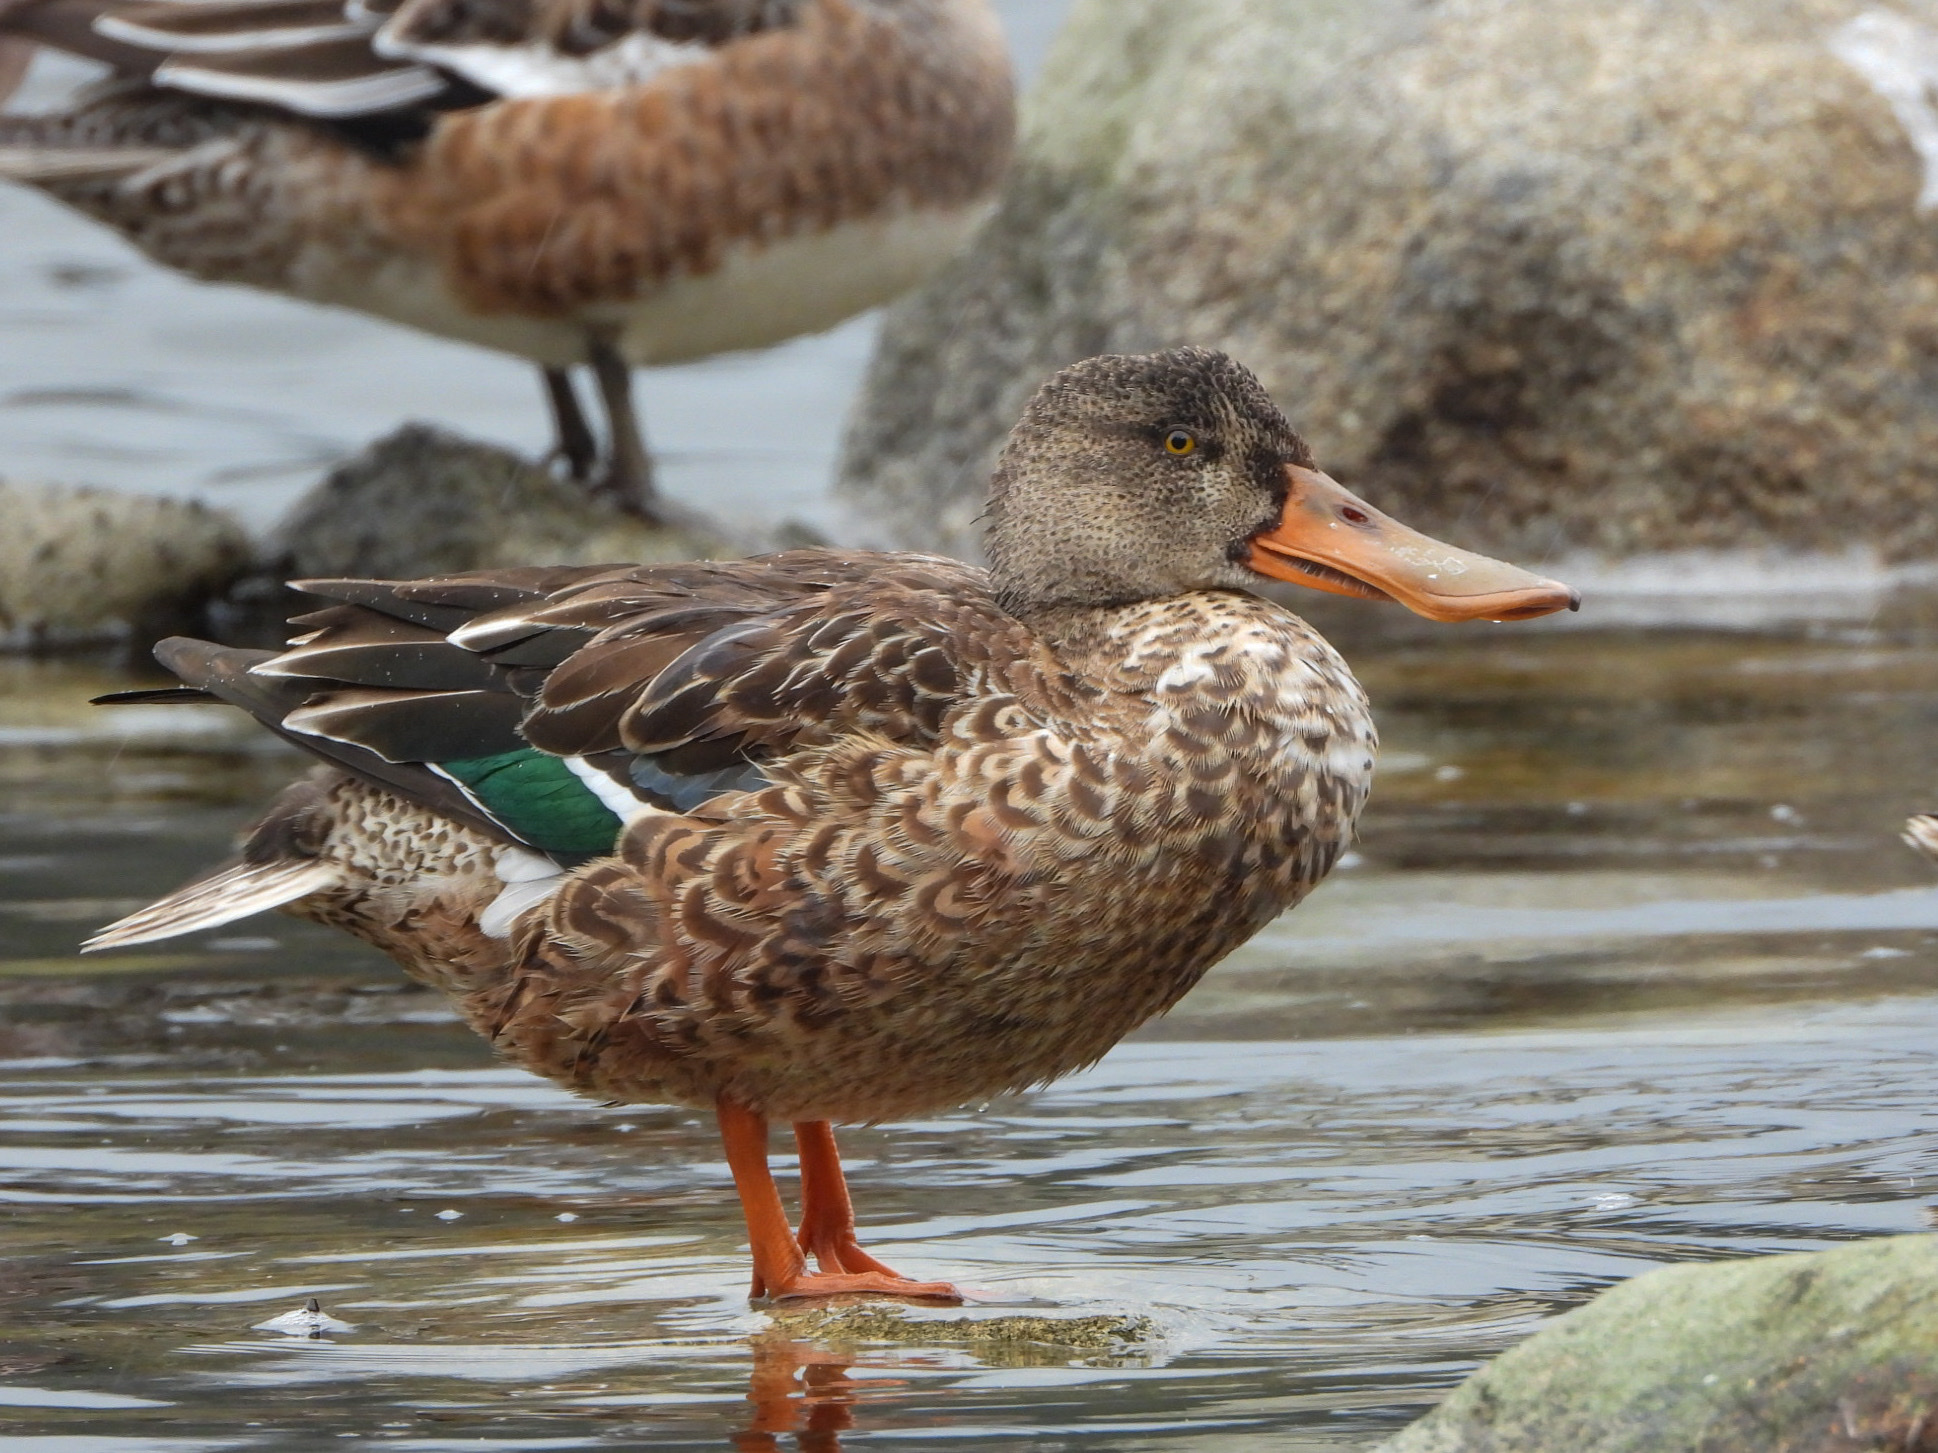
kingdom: Animalia
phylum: Chordata
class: Aves
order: Anseriformes
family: Anatidae
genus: Spatula
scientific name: Spatula clypeata
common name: Northern shoveler
